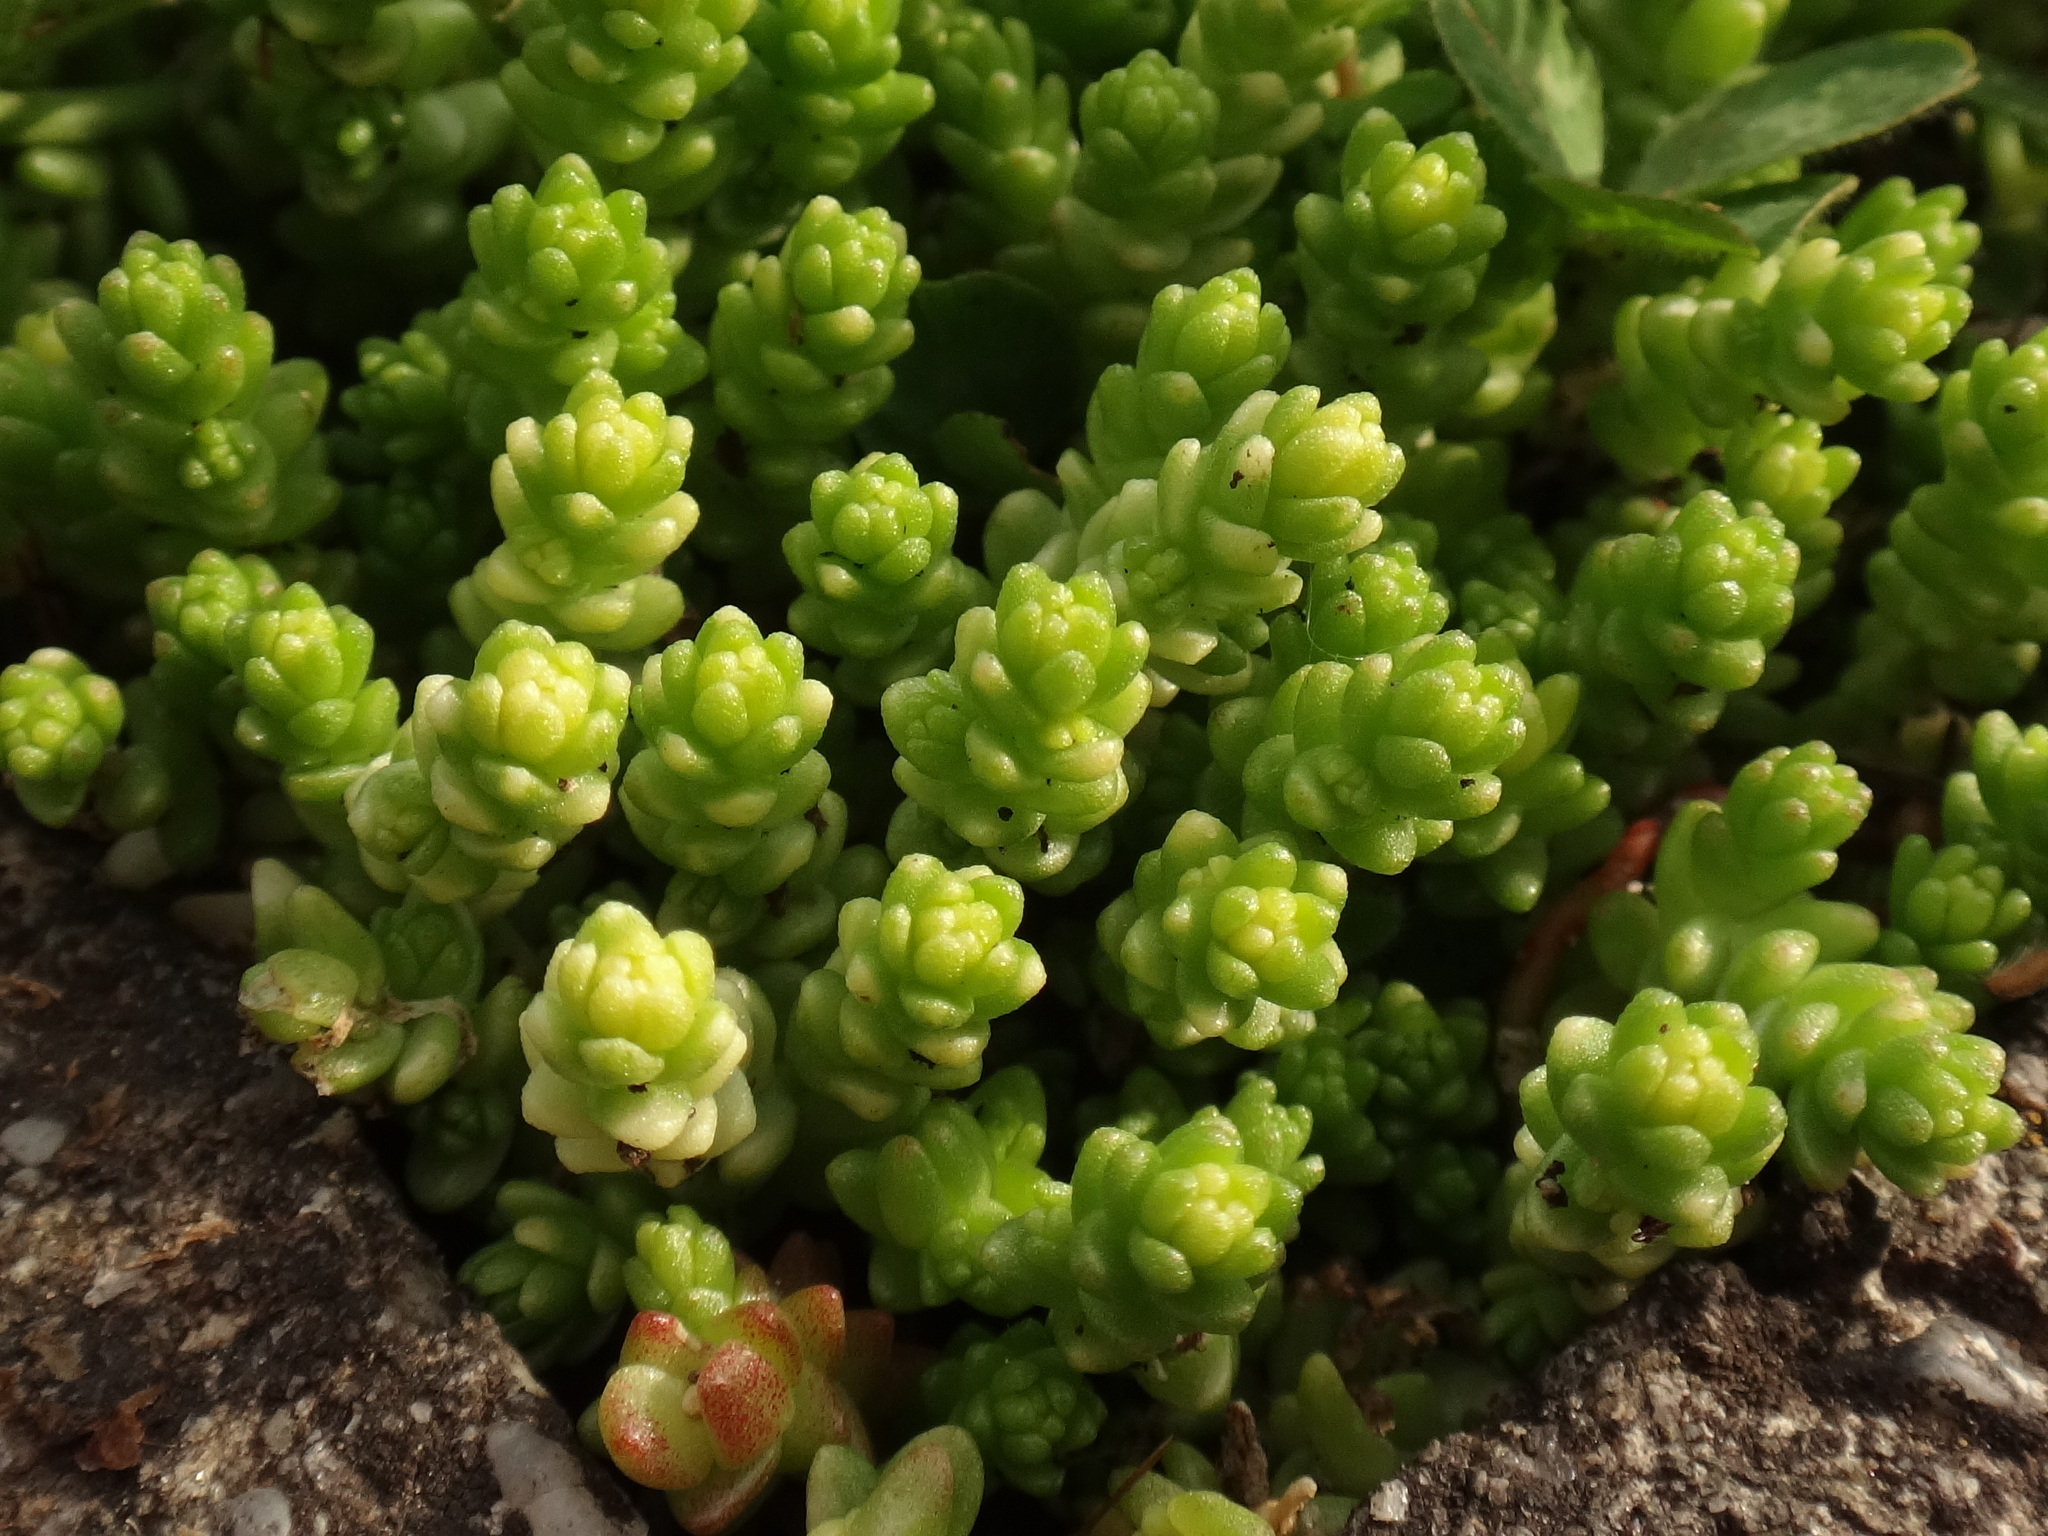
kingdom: Plantae
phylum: Tracheophyta
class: Magnoliopsida
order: Saxifragales
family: Crassulaceae
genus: Sedum
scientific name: Sedum acre
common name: Biting stonecrop
